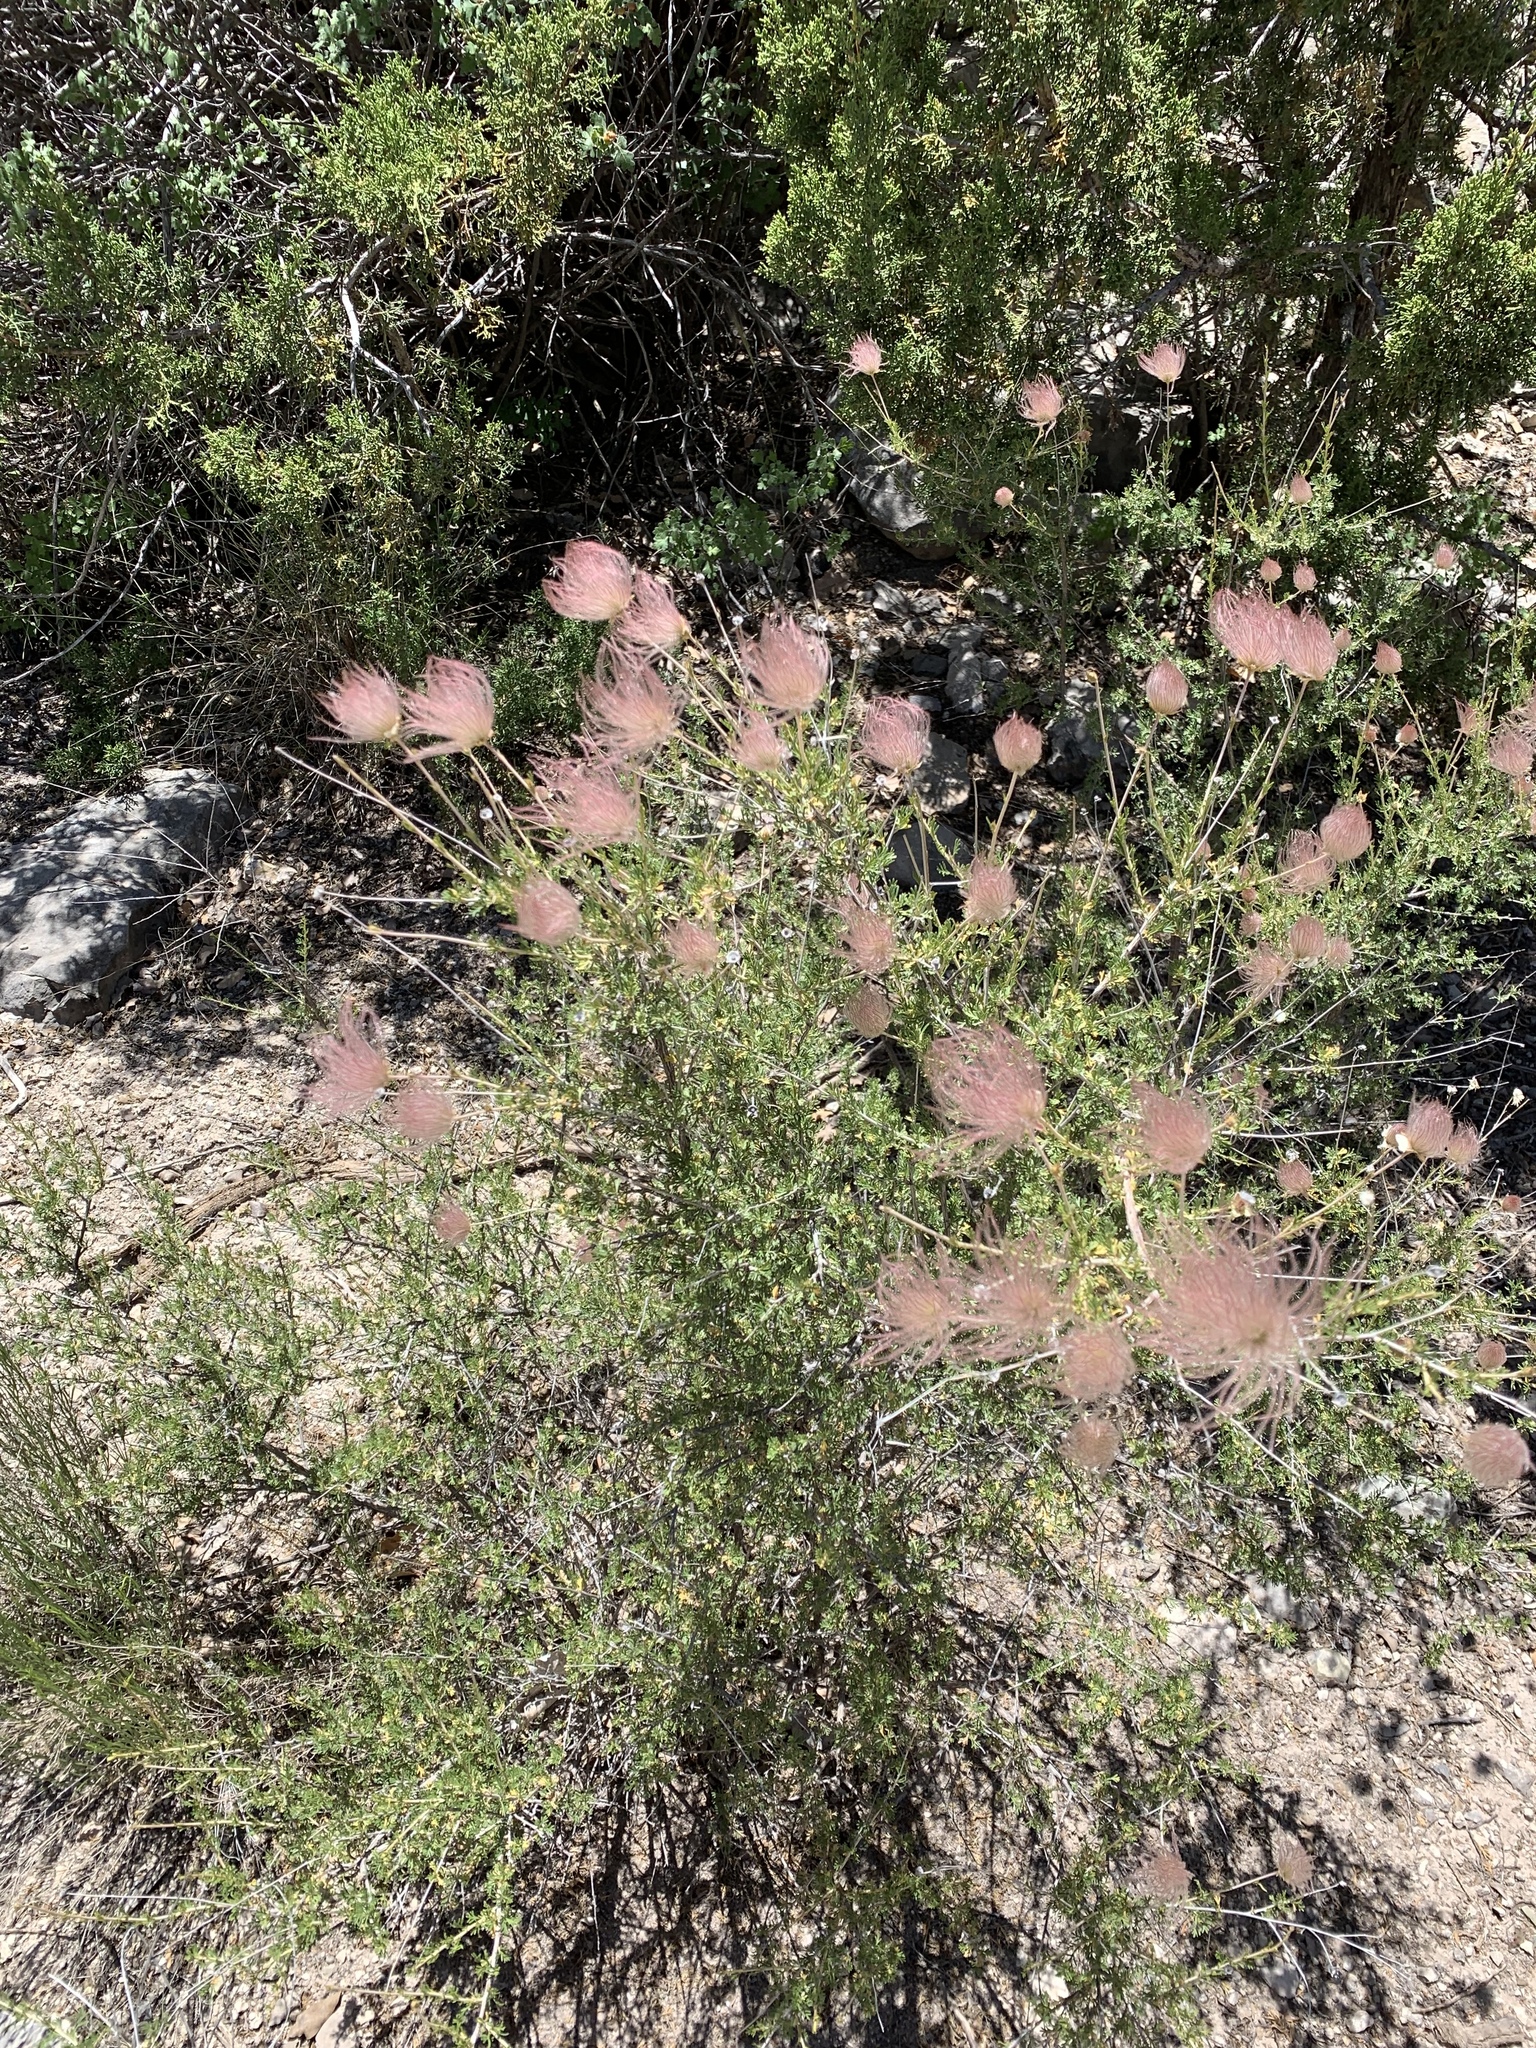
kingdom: Plantae
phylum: Tracheophyta
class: Magnoliopsida
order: Rosales
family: Rosaceae
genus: Fallugia
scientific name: Fallugia paradoxa
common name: Apache-plume
